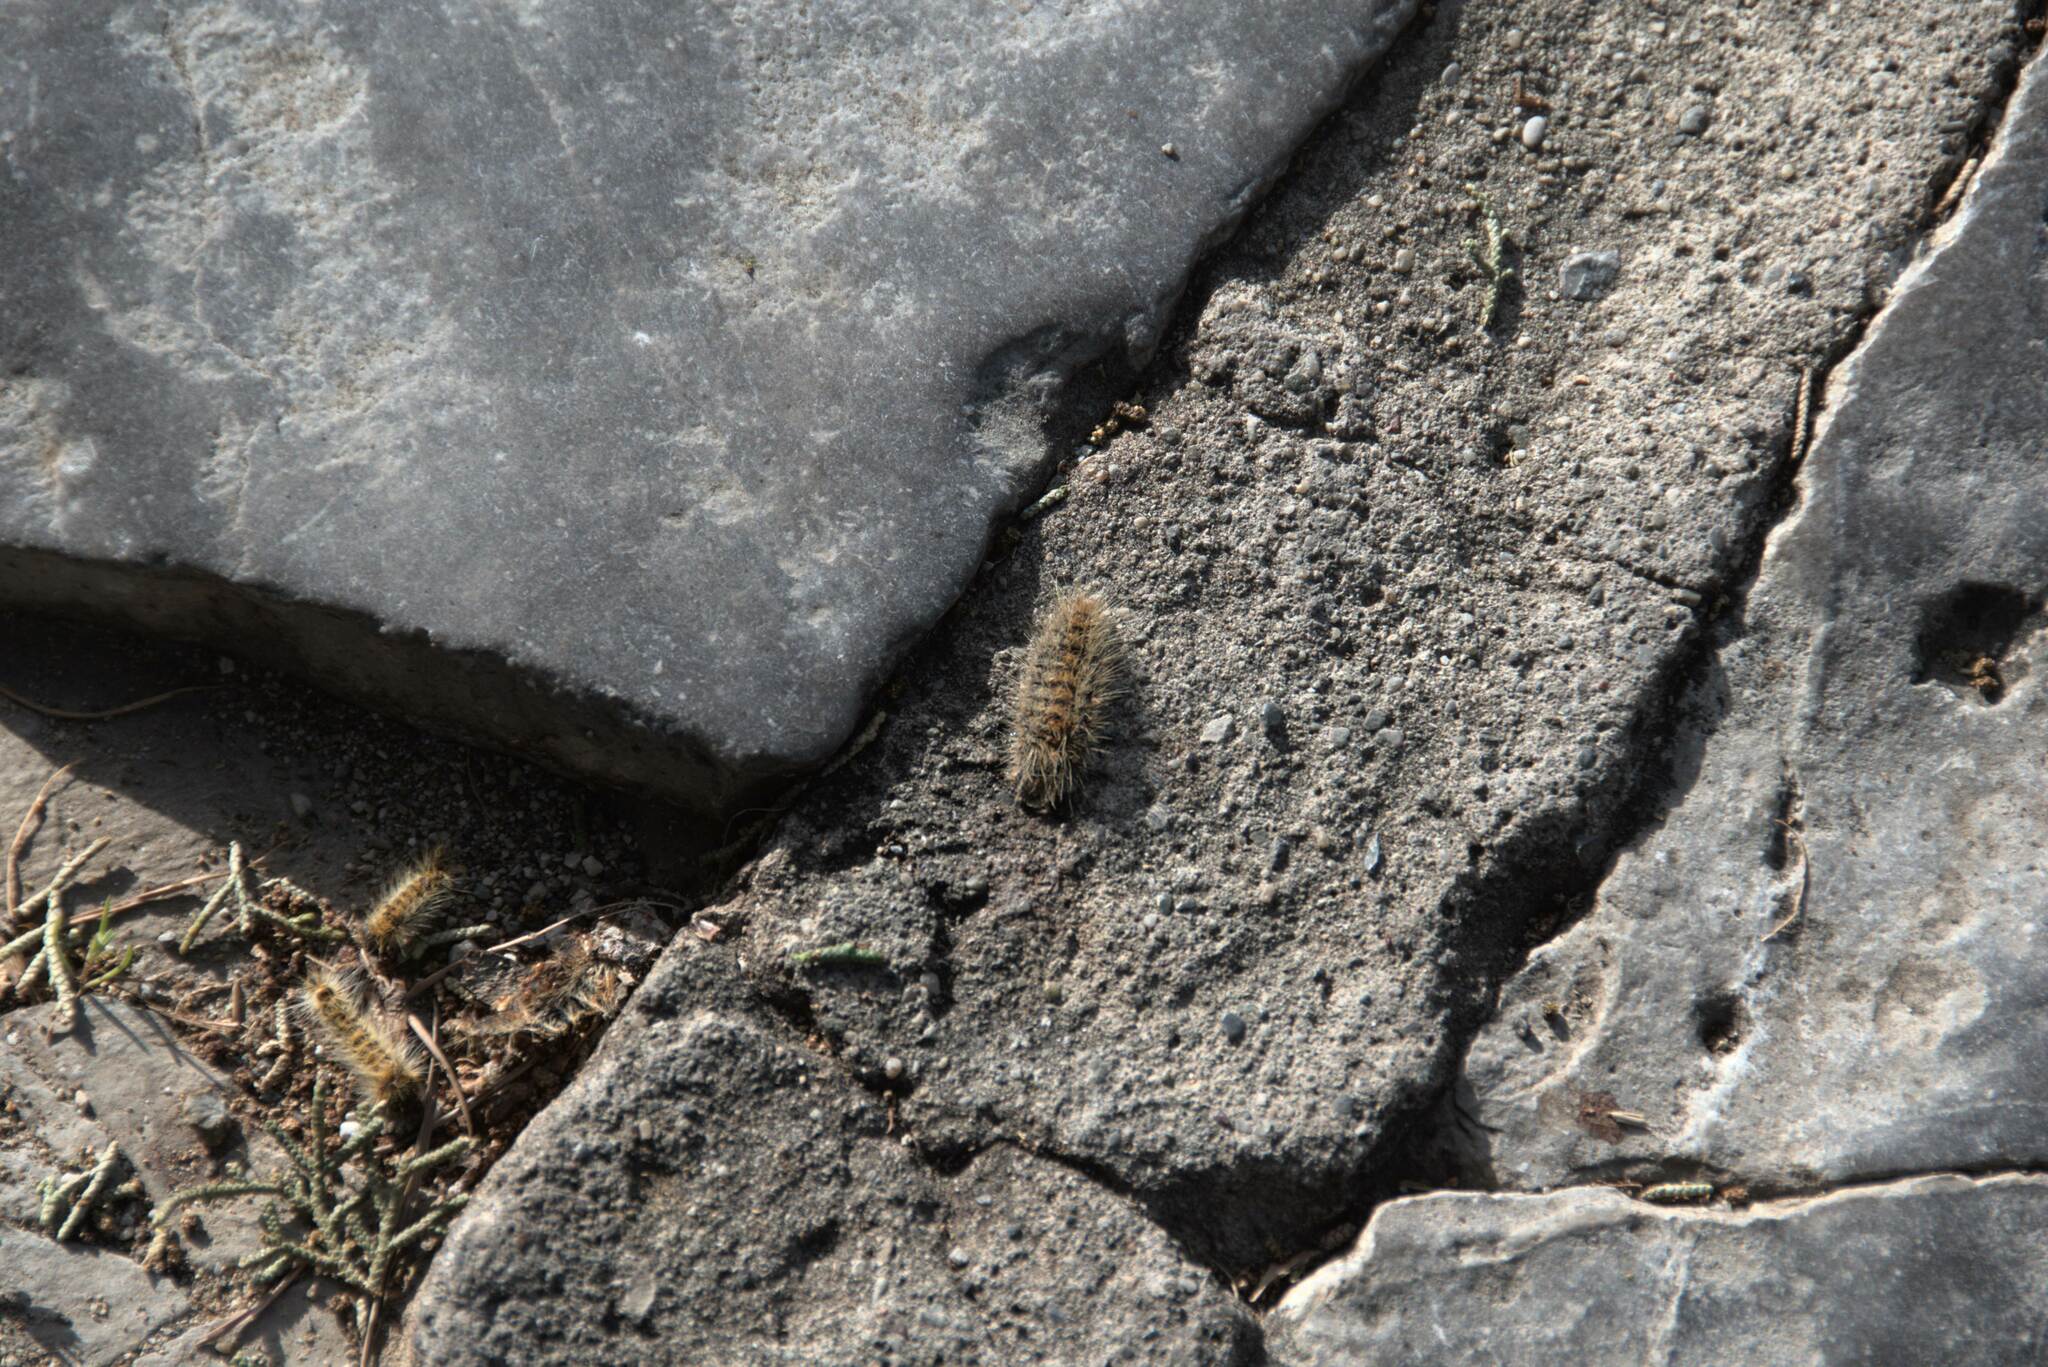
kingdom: Animalia
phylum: Arthropoda
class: Insecta
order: Lepidoptera
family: Notodontidae
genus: Thaumetopoea
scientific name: Thaumetopoea
